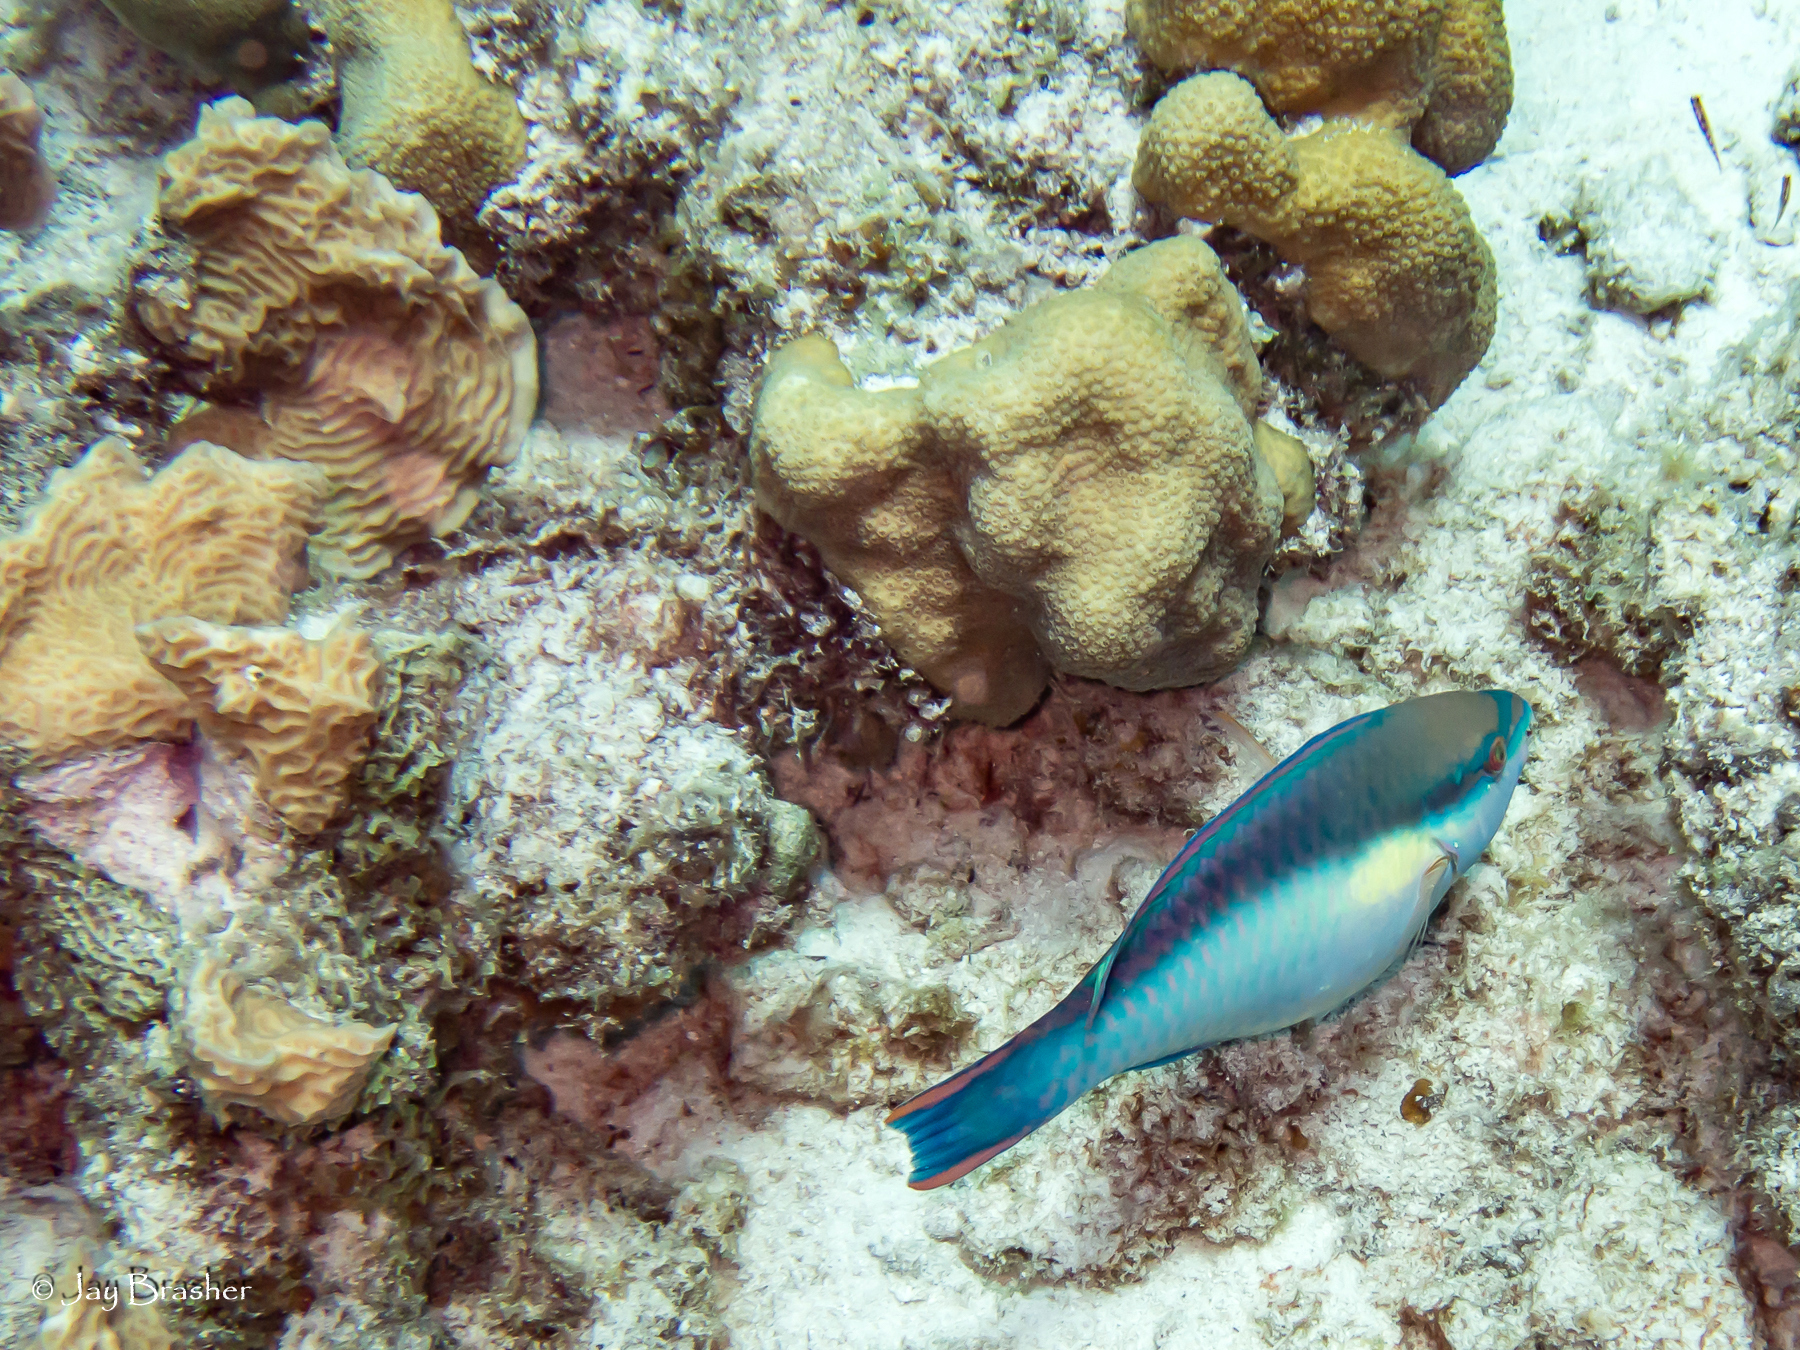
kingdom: Animalia
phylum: Chordata
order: Perciformes
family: Scaridae
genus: Scarus
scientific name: Scarus taeniopterus
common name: Princess parrotfish
